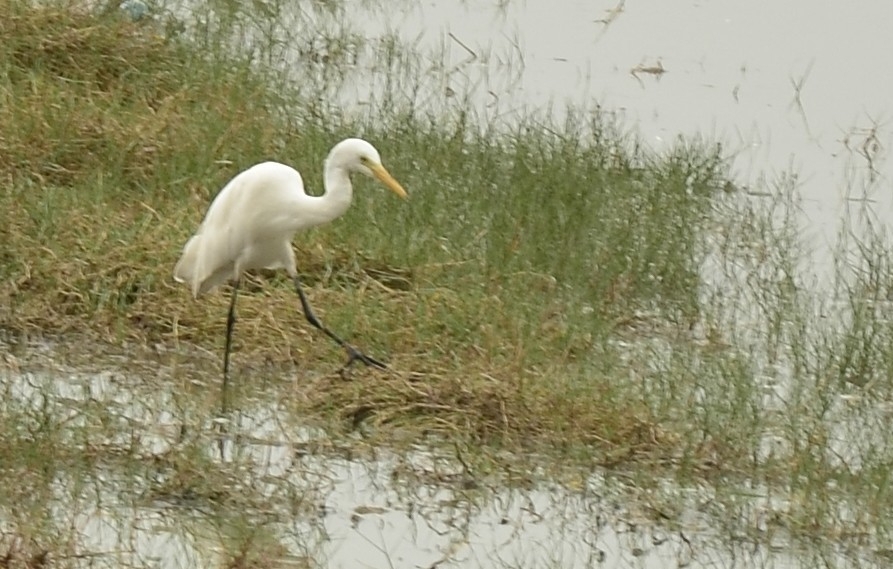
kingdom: Animalia
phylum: Chordata
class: Aves
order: Pelecaniformes
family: Ardeidae
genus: Egretta
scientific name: Egretta intermedia
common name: Intermediate egret
